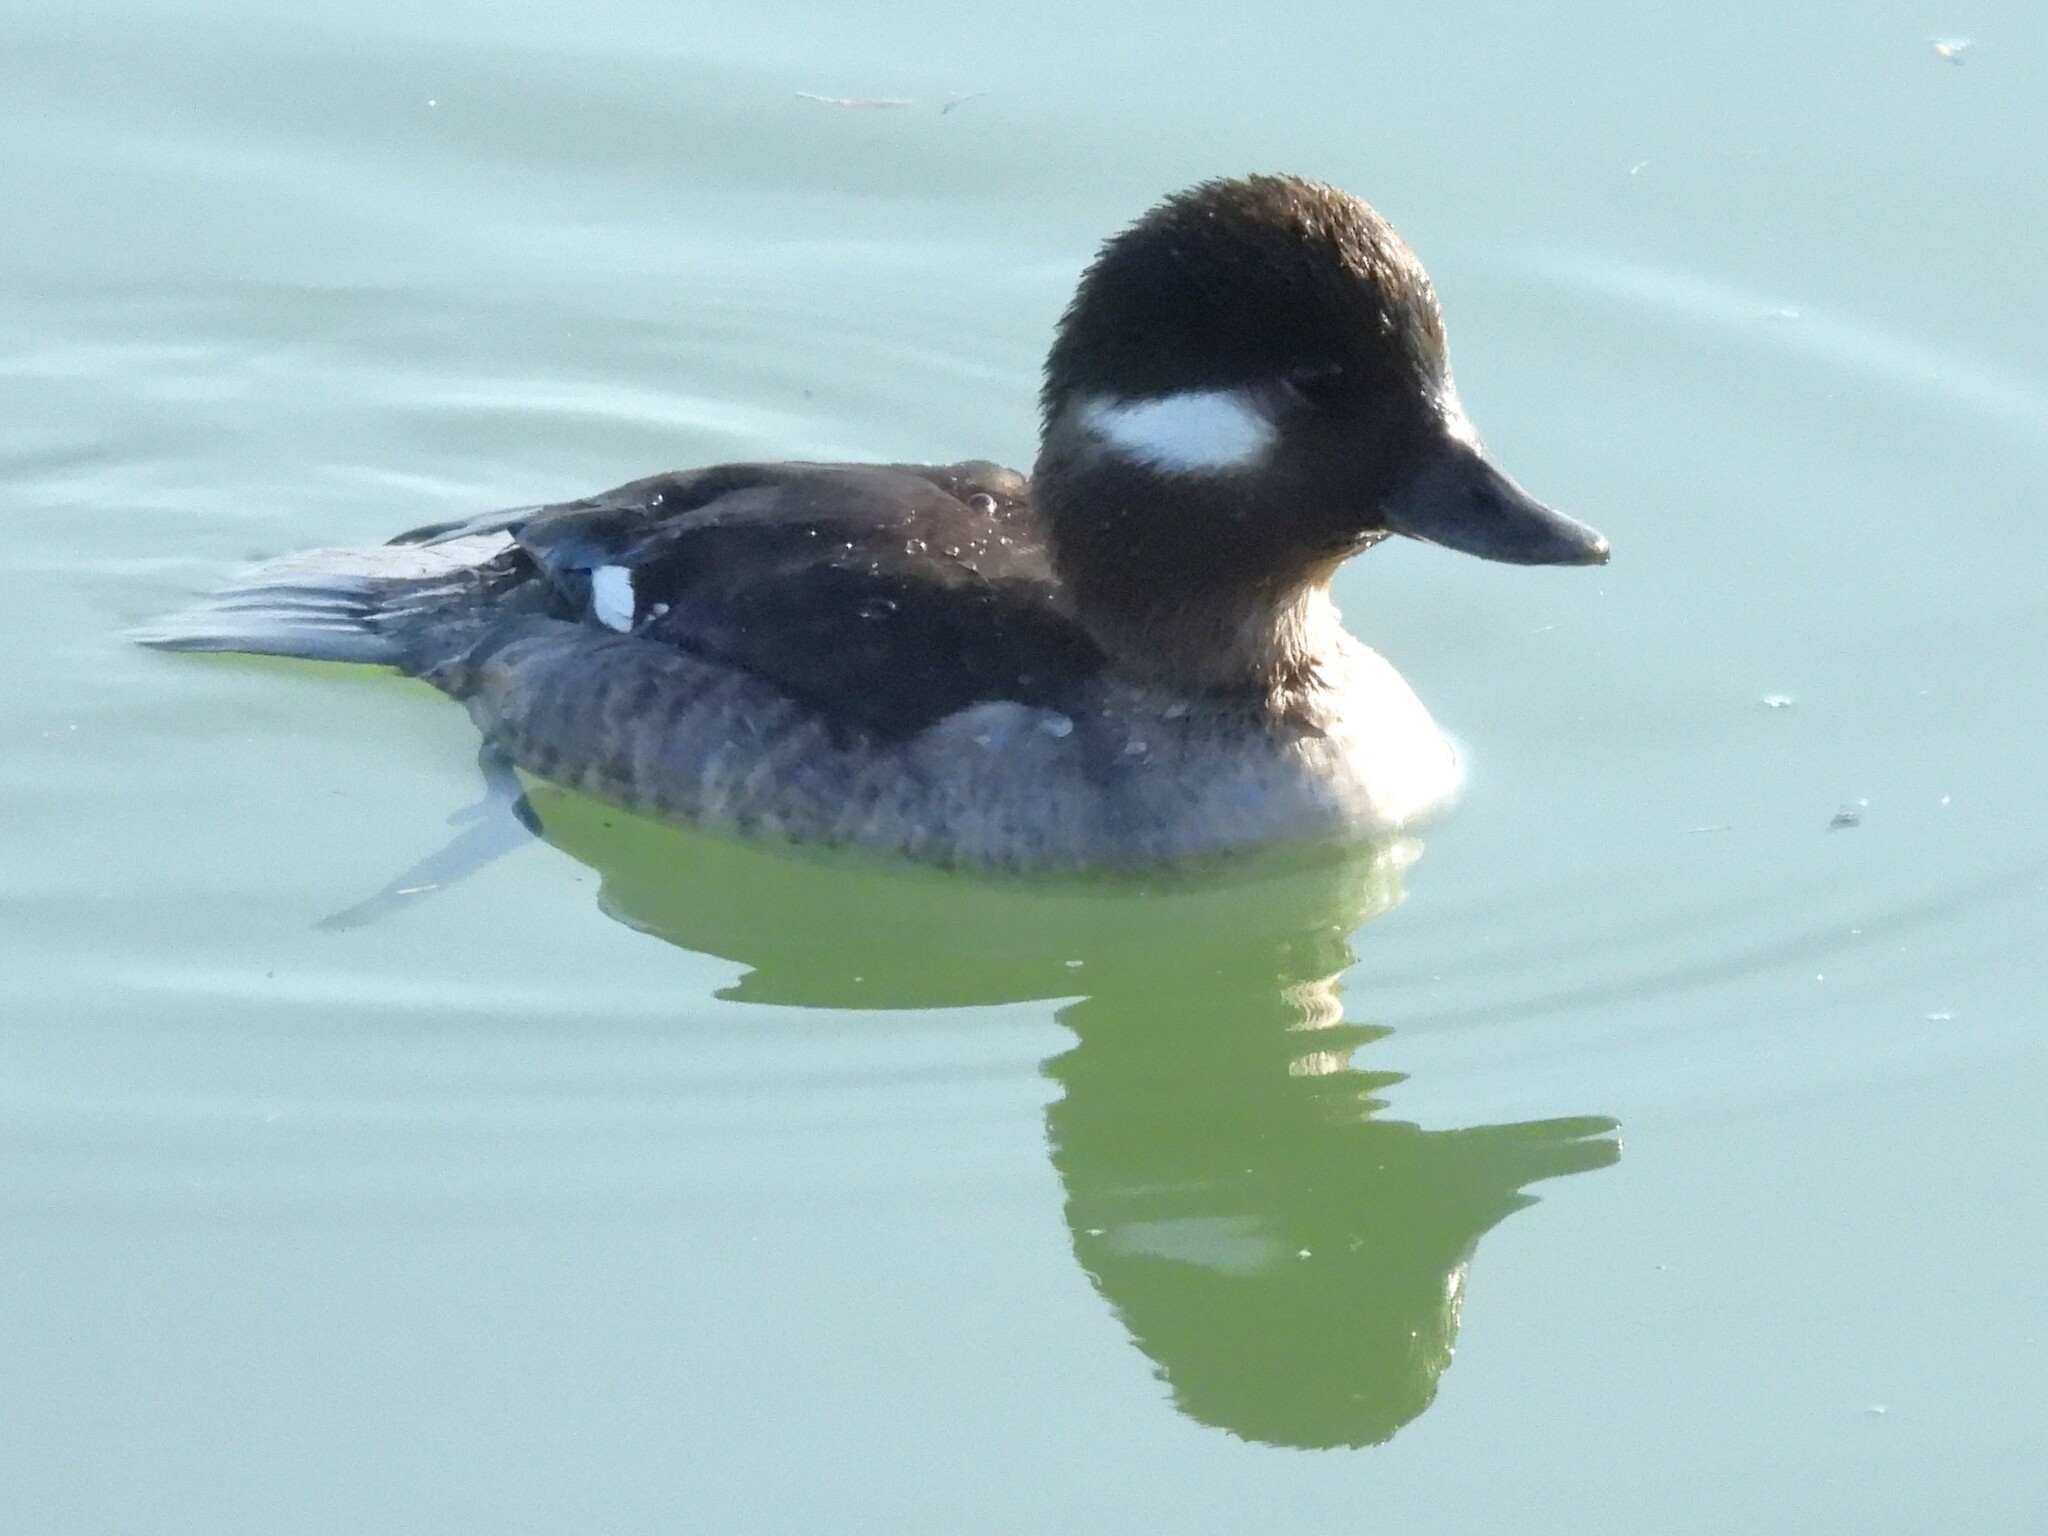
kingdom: Animalia
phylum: Chordata
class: Aves
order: Anseriformes
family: Anatidae
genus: Bucephala
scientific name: Bucephala albeola
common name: Bufflehead
